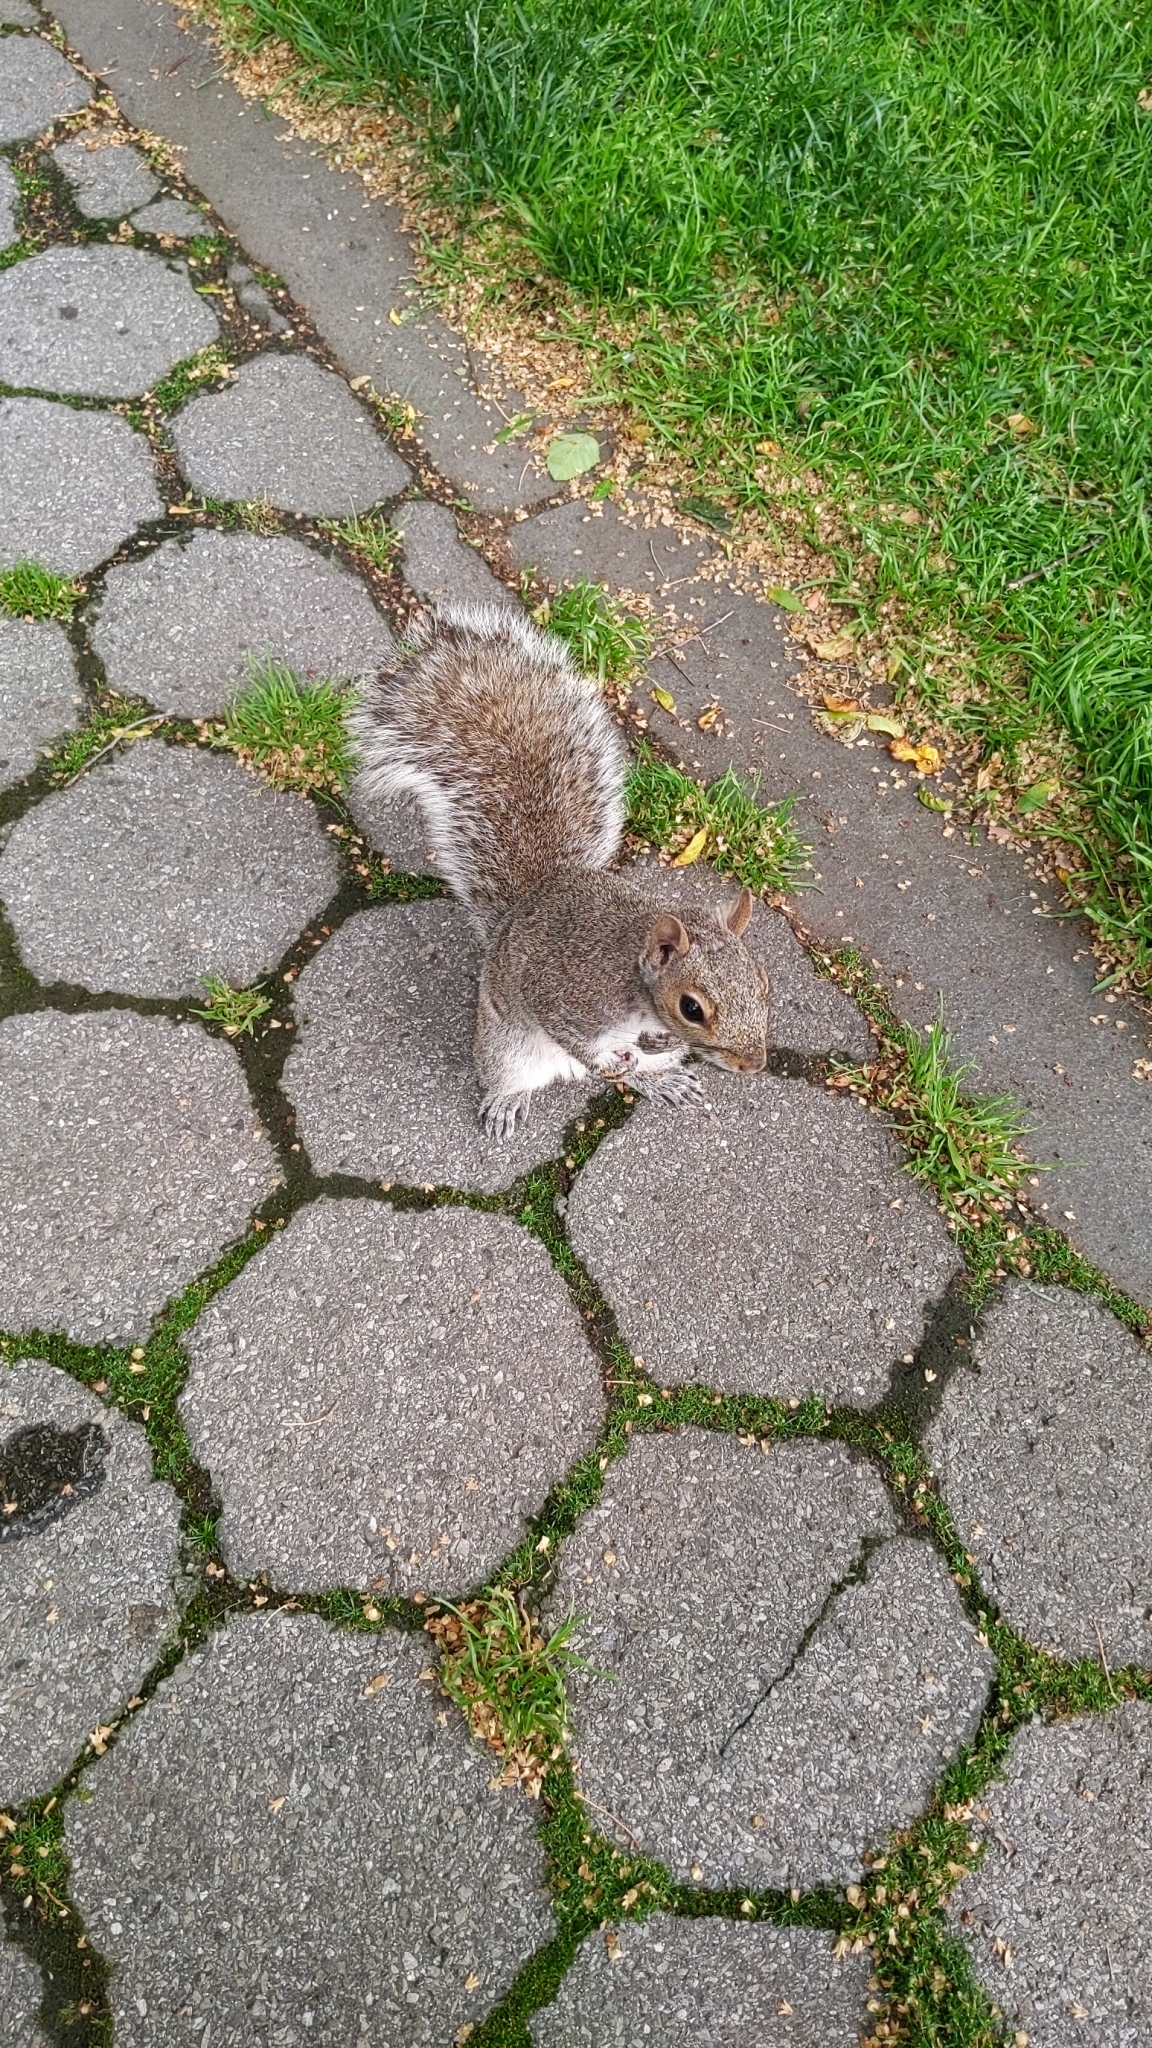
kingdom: Animalia
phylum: Chordata
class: Mammalia
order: Rodentia
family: Sciuridae
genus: Sciurus
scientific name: Sciurus carolinensis
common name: Eastern gray squirrel
